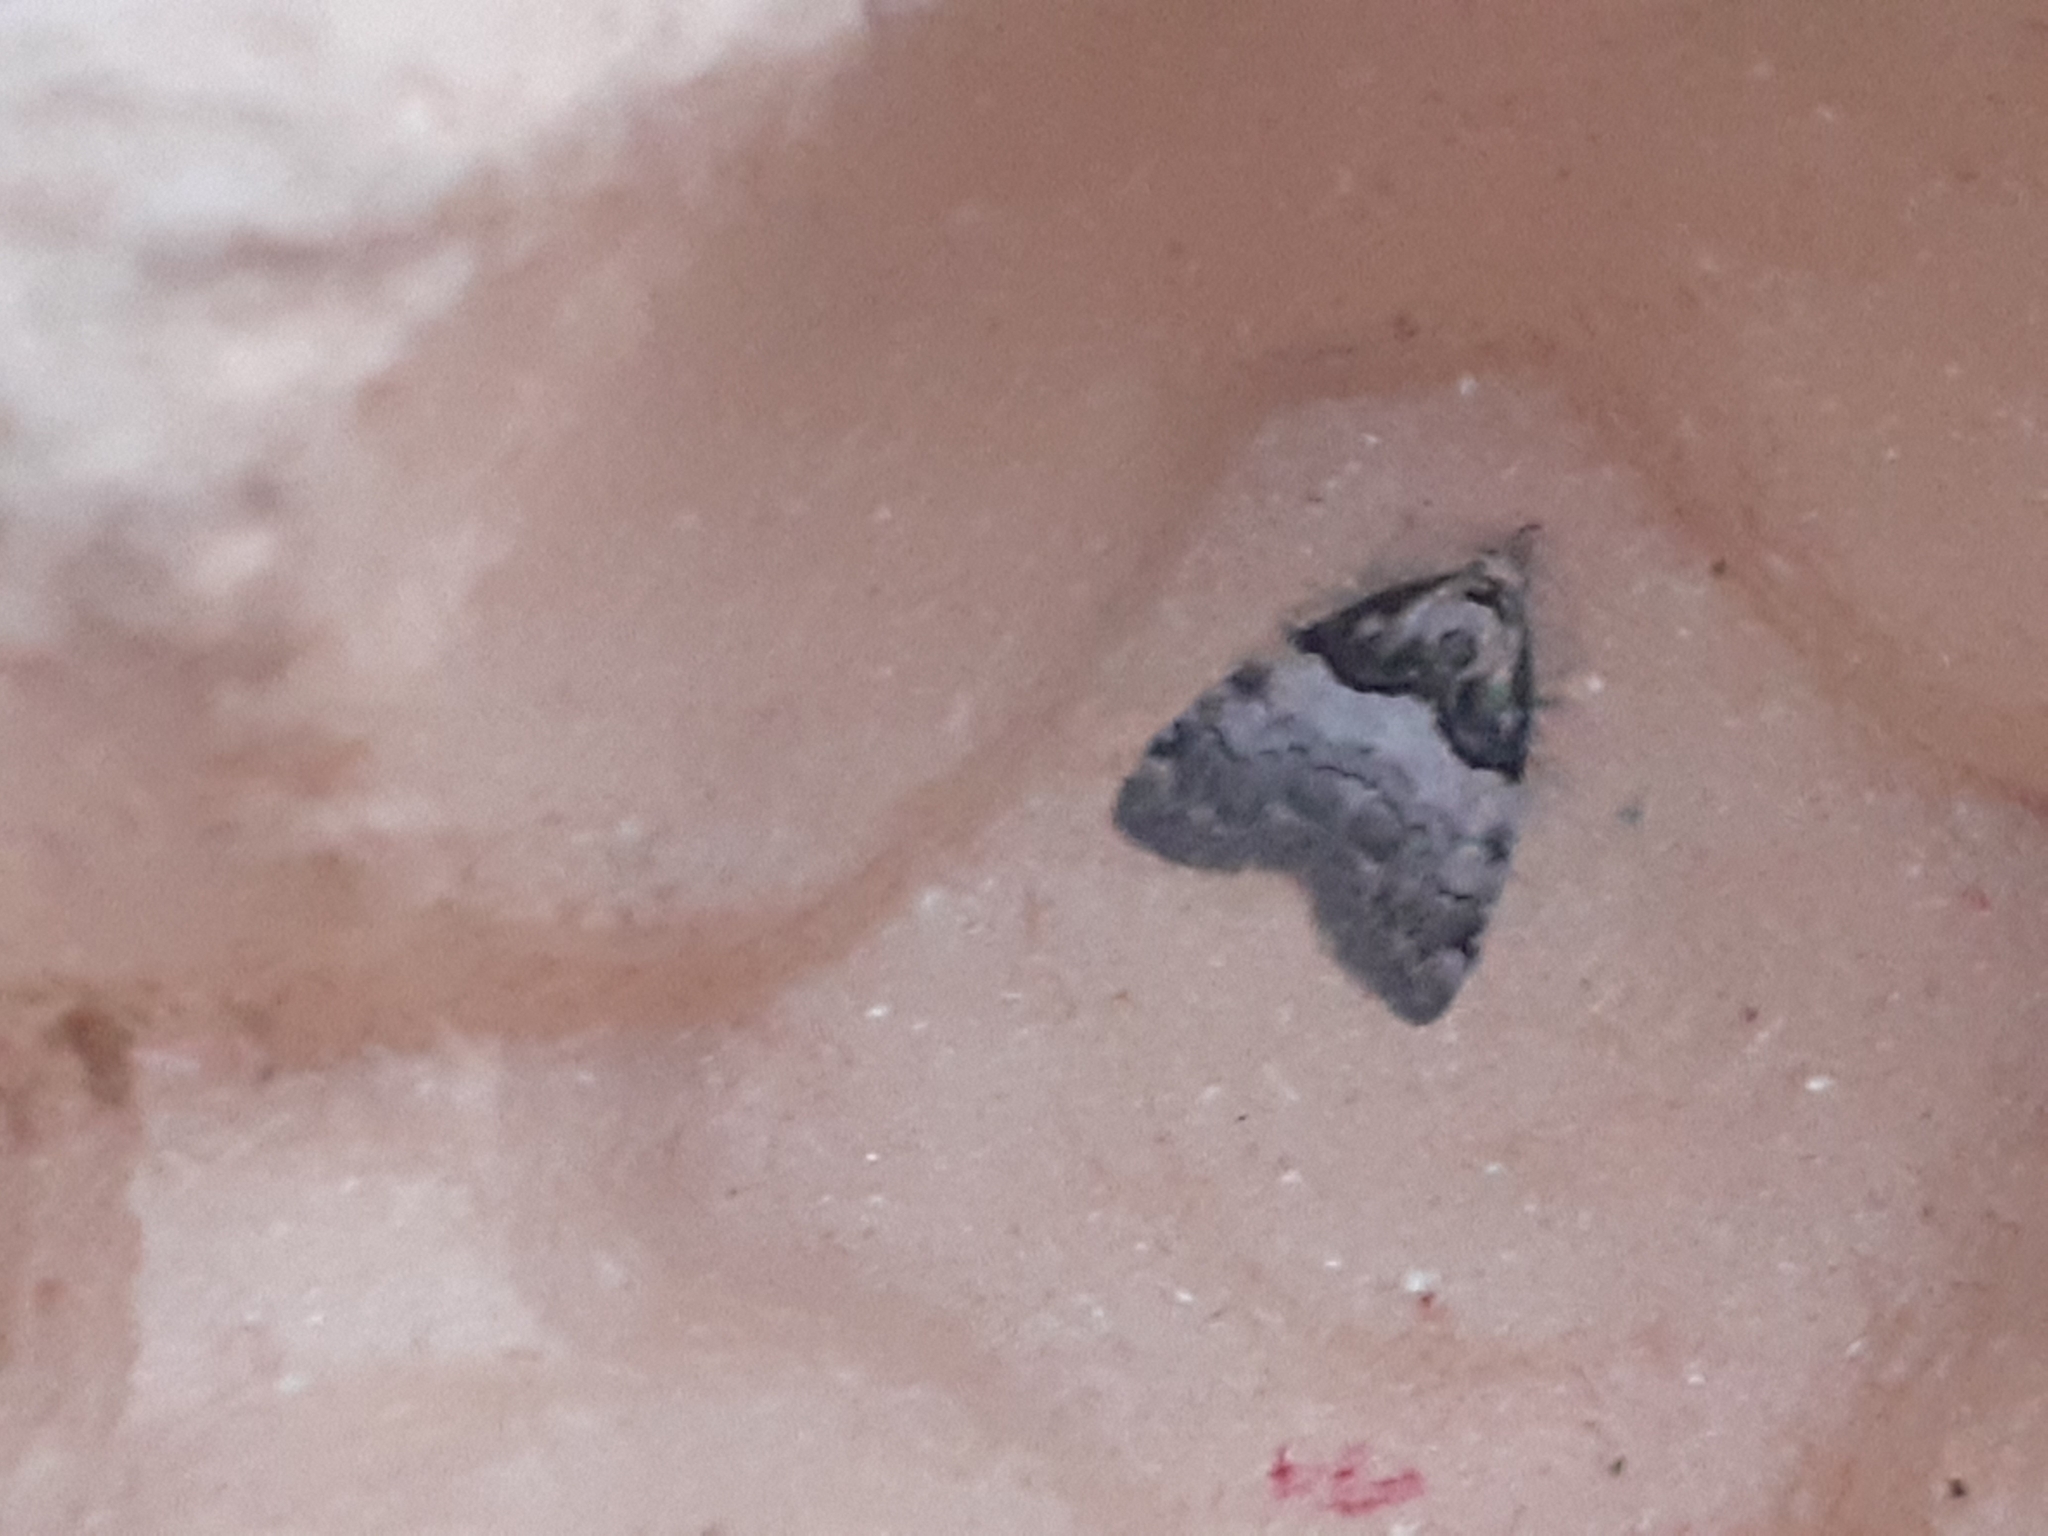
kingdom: Animalia
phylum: Arthropoda
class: Insecta
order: Lepidoptera
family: Nolidae
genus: Nola
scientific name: Nola cucullatella
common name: Short-cloaked moth
